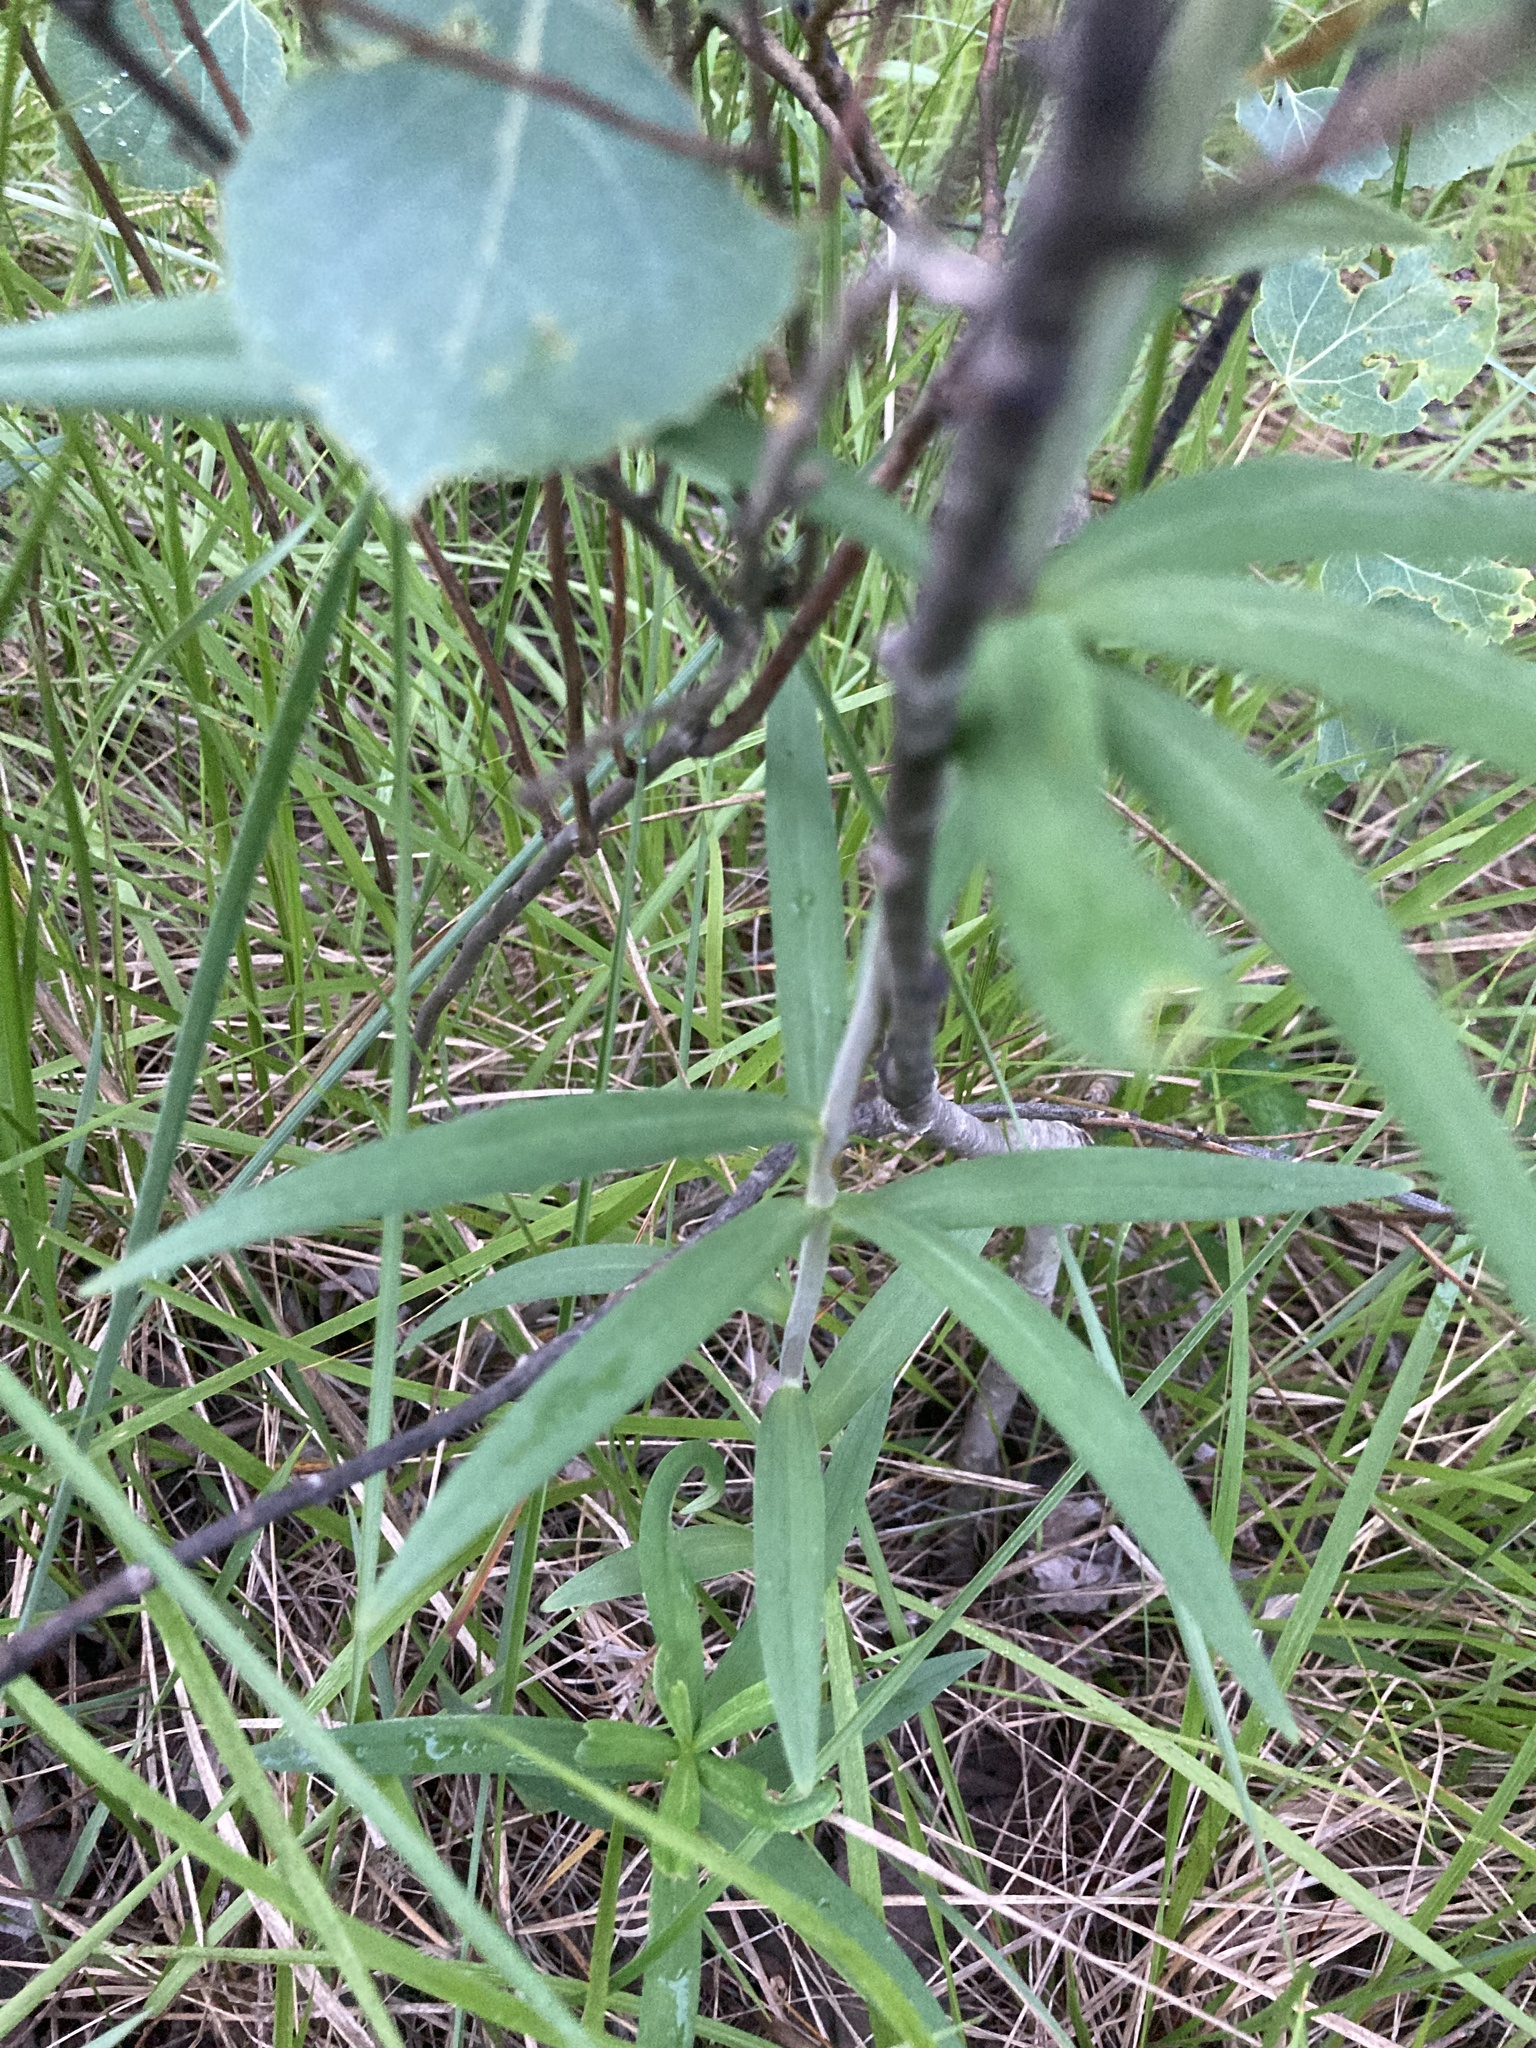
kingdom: Plantae
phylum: Tracheophyta
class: Liliopsida
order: Liliales
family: Liliaceae
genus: Lilium
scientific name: Lilium philadelphicum
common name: Red lily
